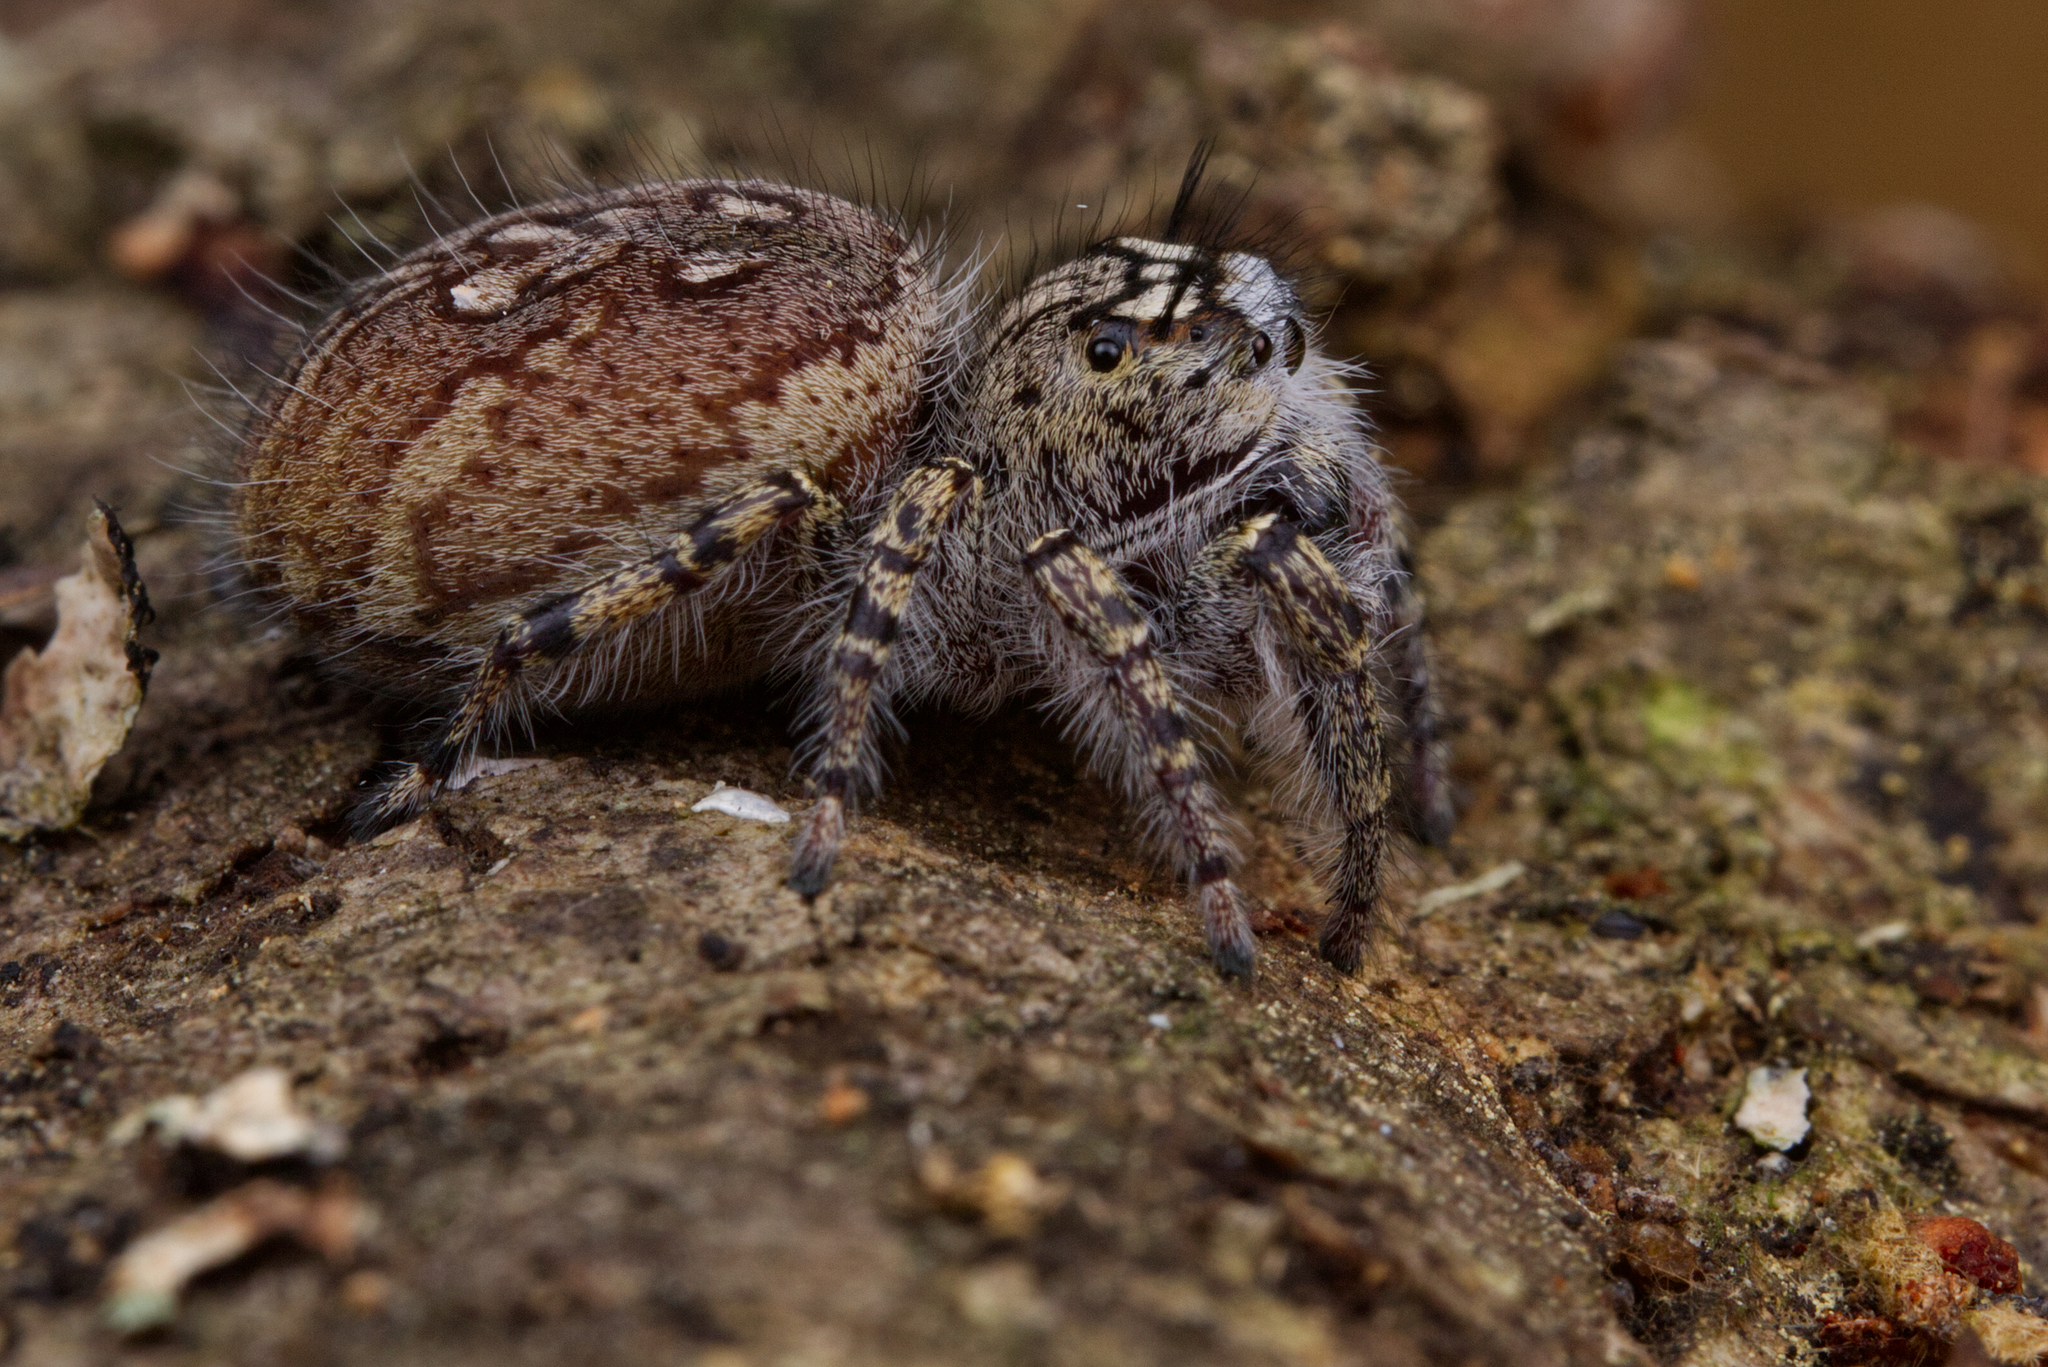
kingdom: Animalia
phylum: Arthropoda
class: Arachnida
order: Araneae
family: Salticidae
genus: Phidippus
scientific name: Phidippus mystaceus
